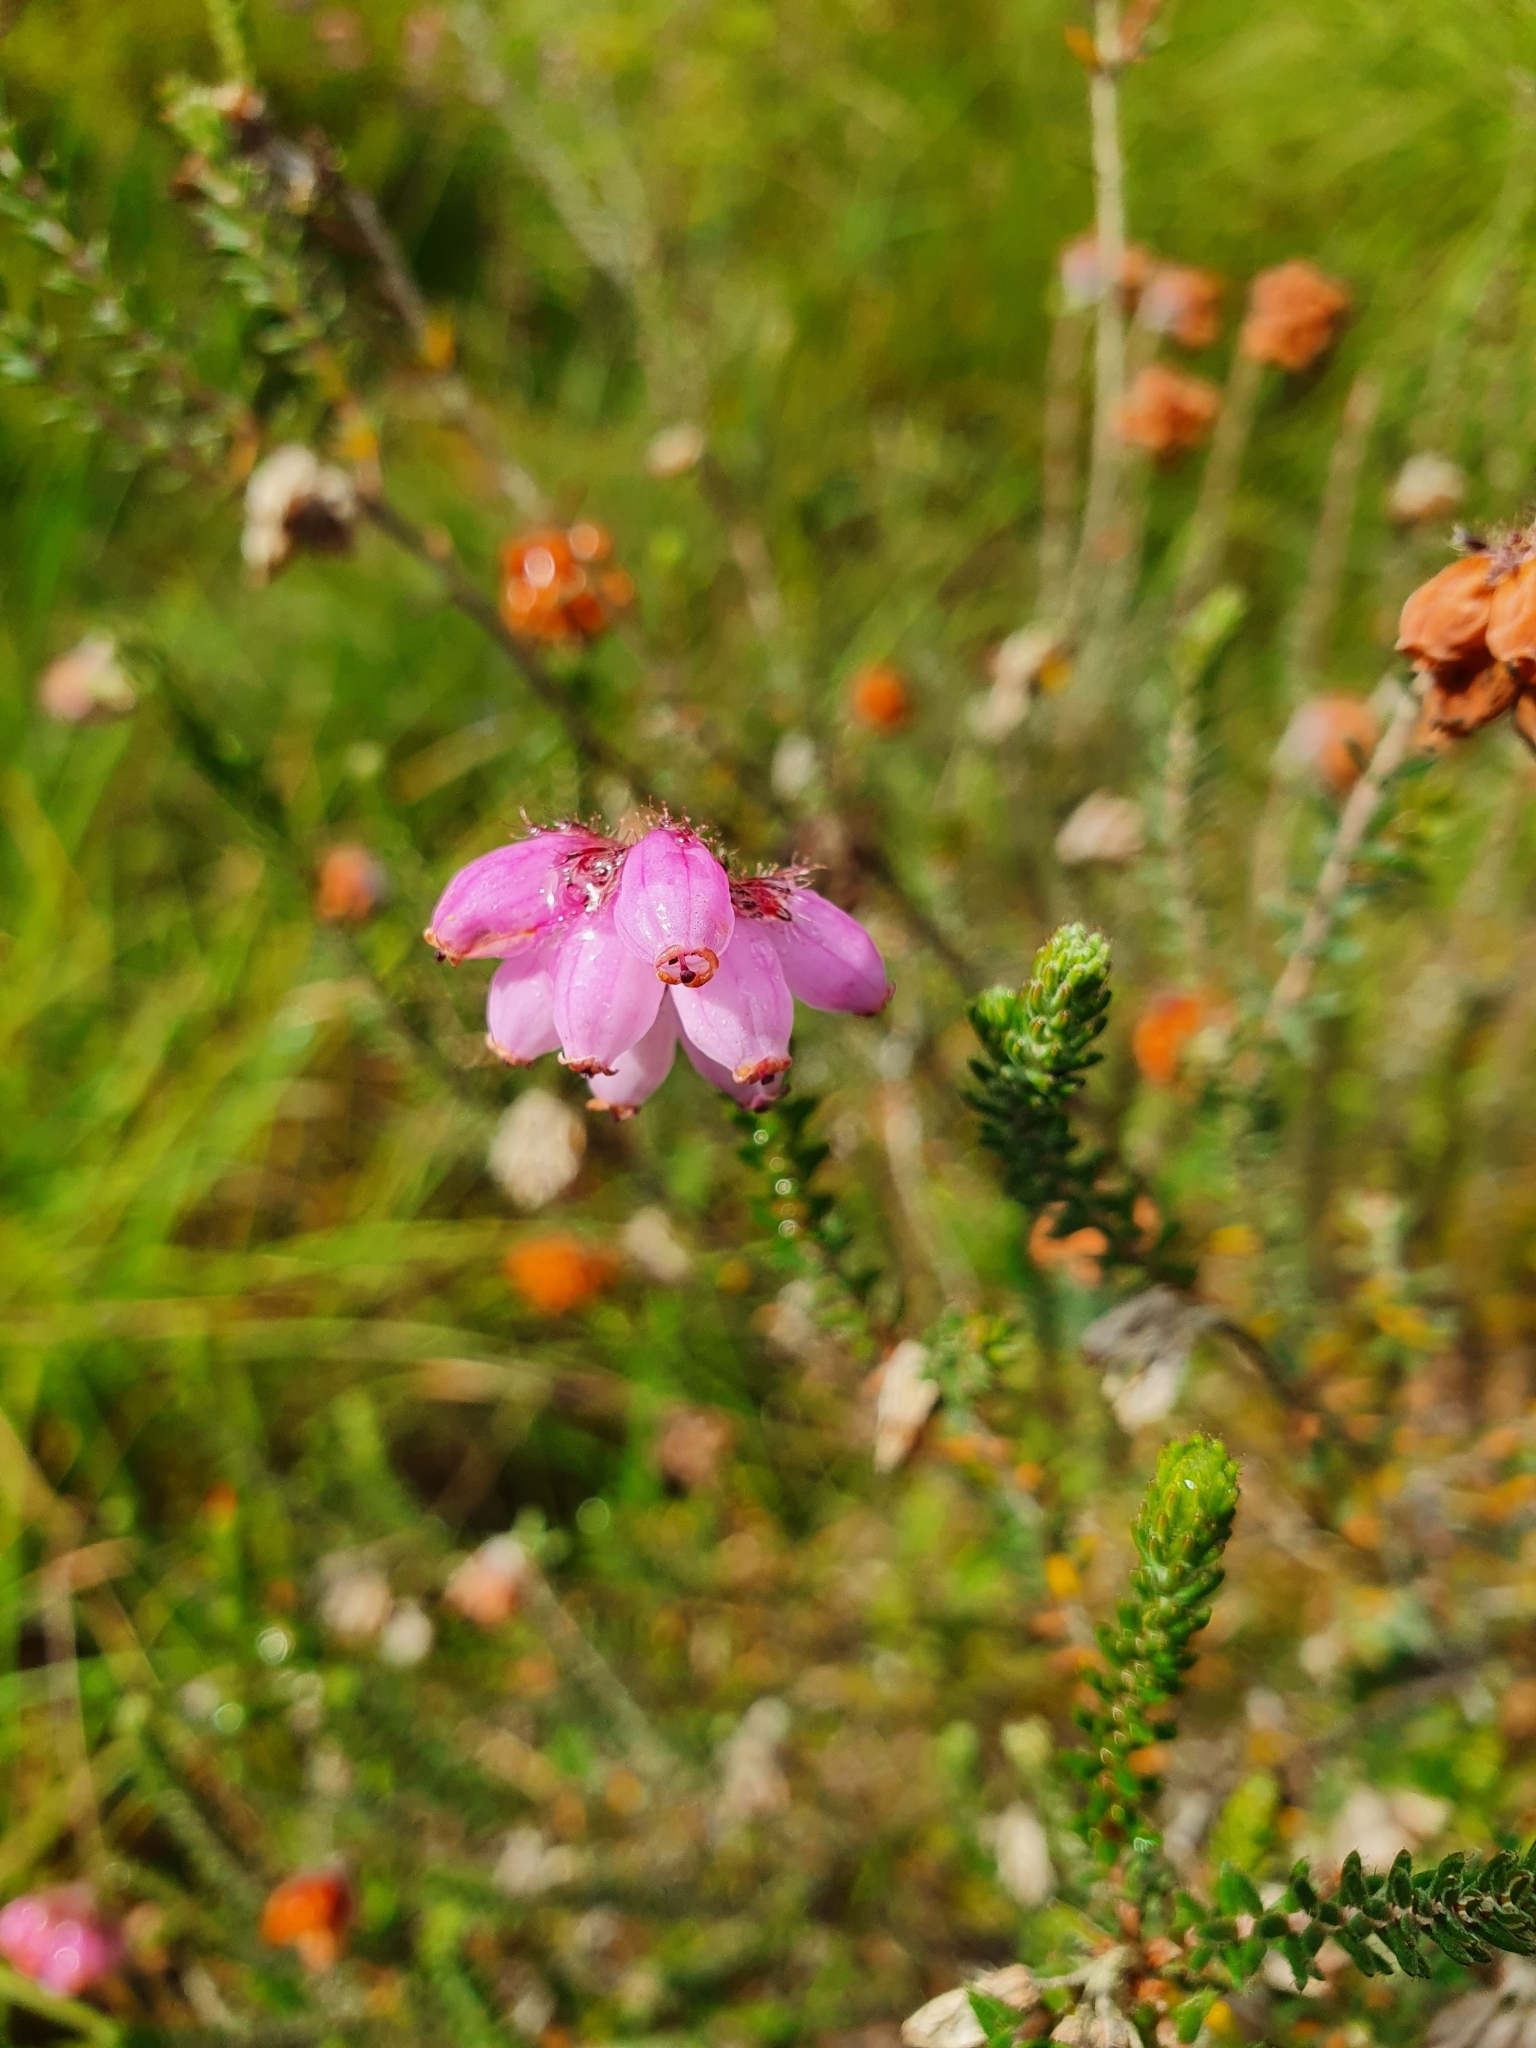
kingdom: Plantae
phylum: Tracheophyta
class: Magnoliopsida
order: Ericales
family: Ericaceae
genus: Erica
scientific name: Erica tetralix
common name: Cross-leaved heath
